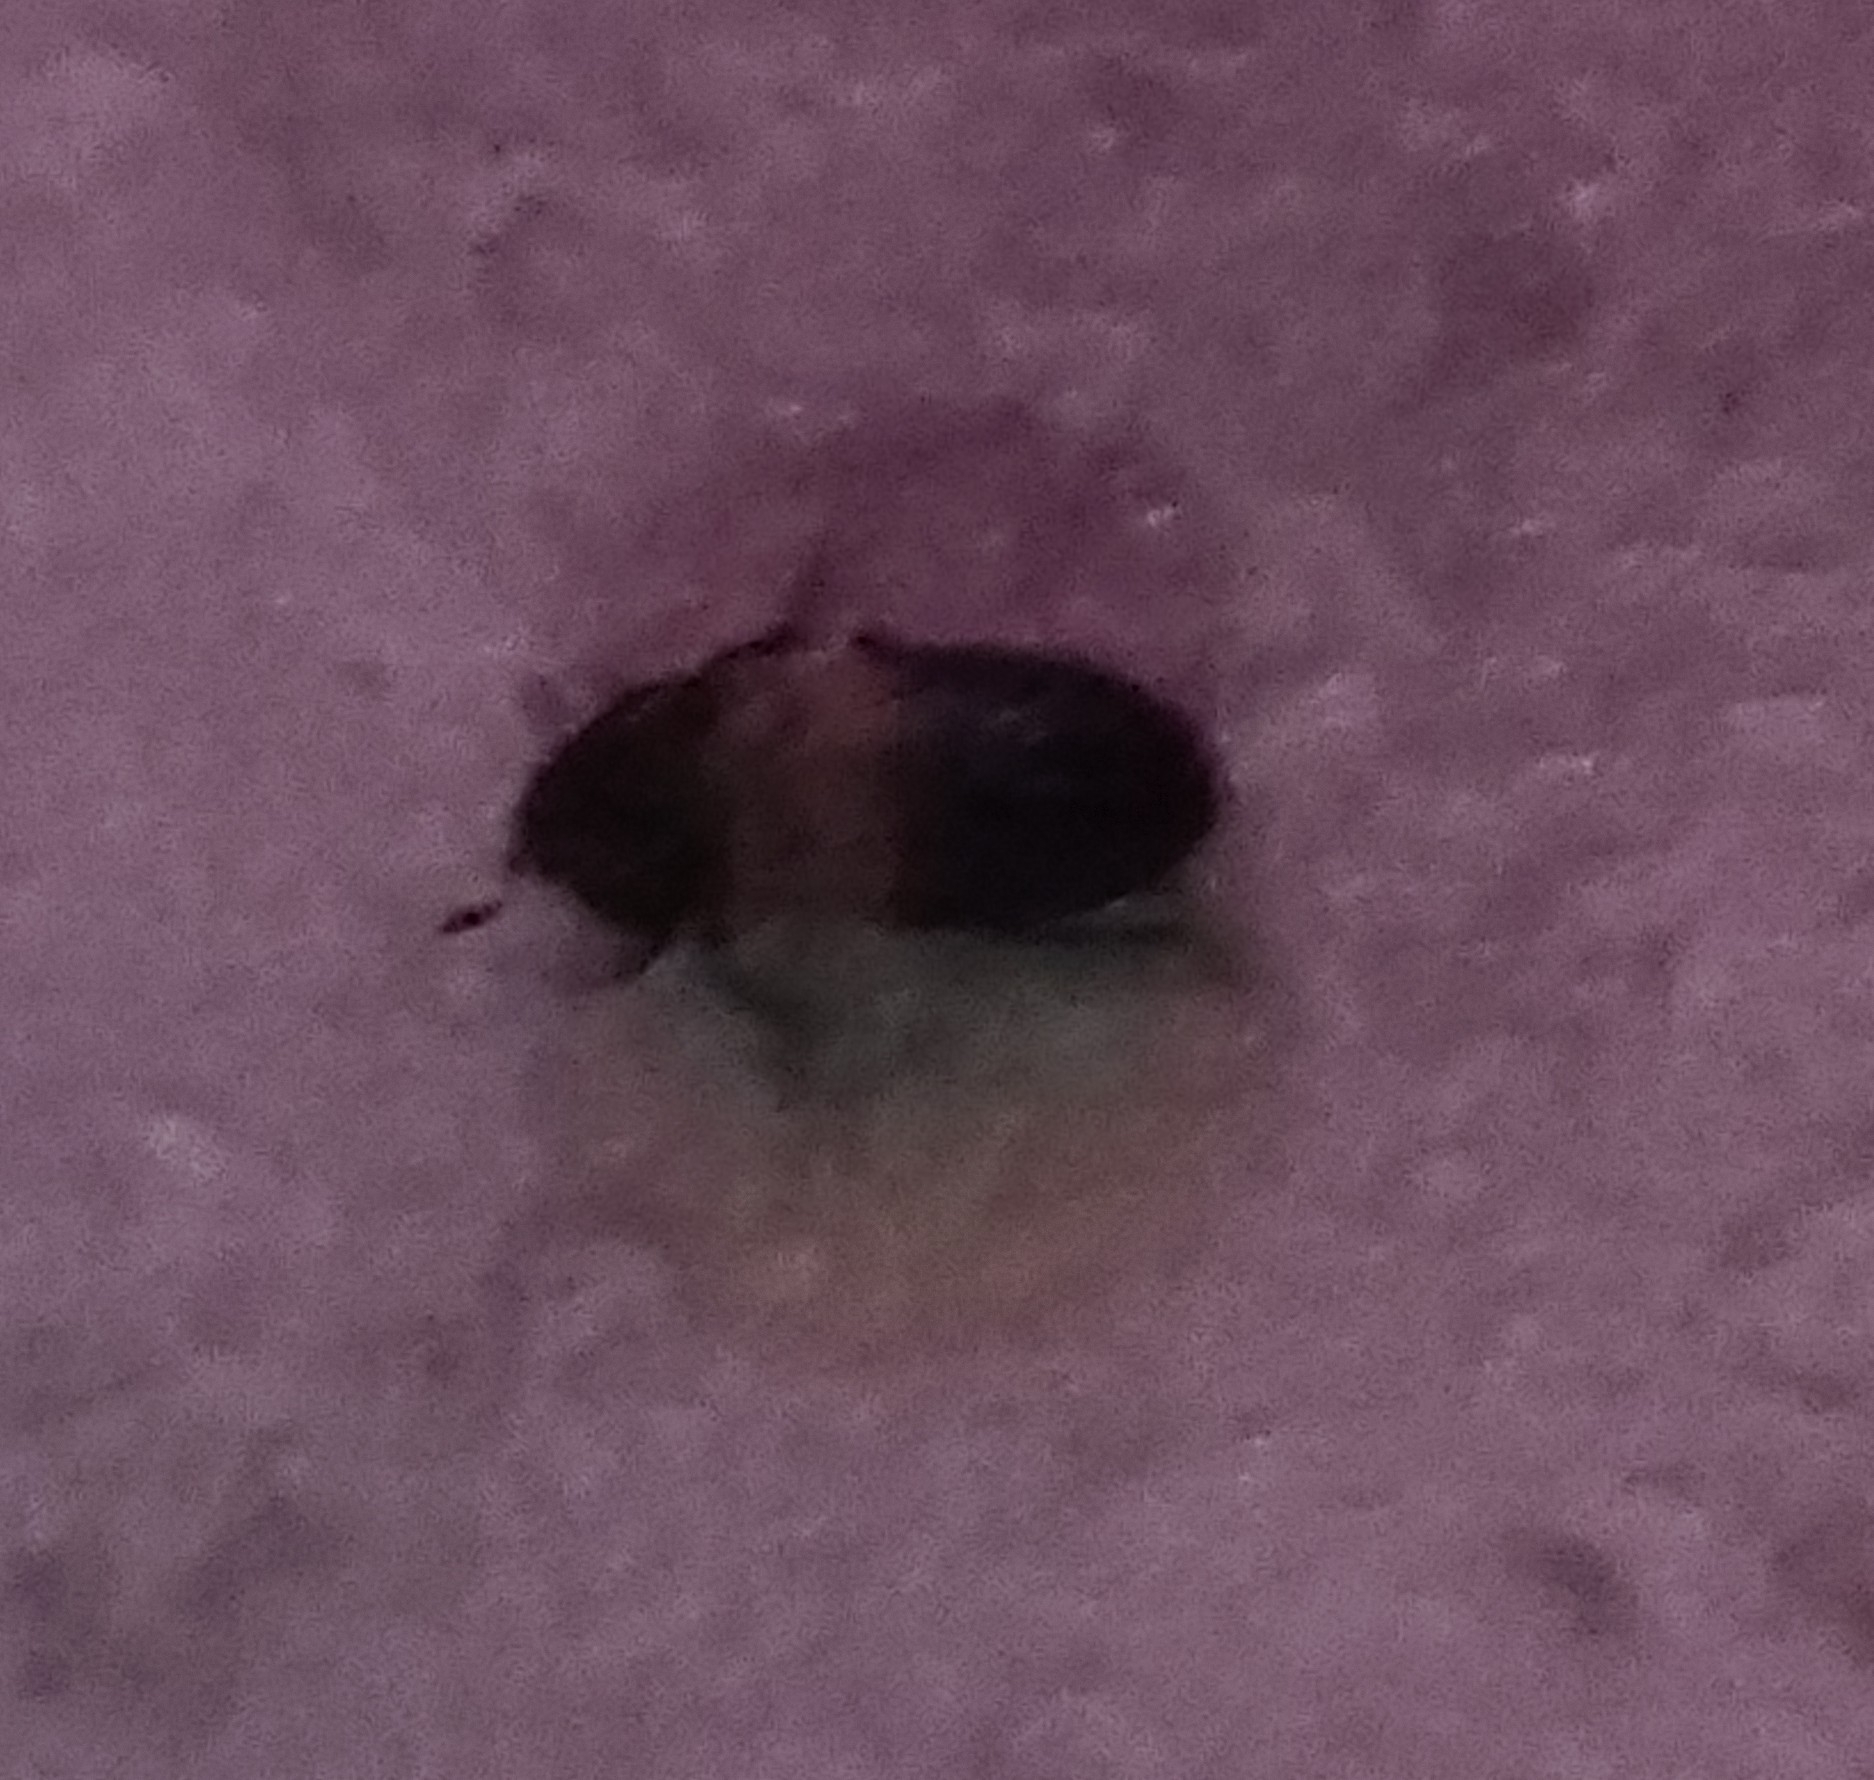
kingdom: Animalia
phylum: Arthropoda
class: Insecta
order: Coleoptera
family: Dermestidae
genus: Dermestes
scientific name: Dermestes lardarius
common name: Larder beetle
